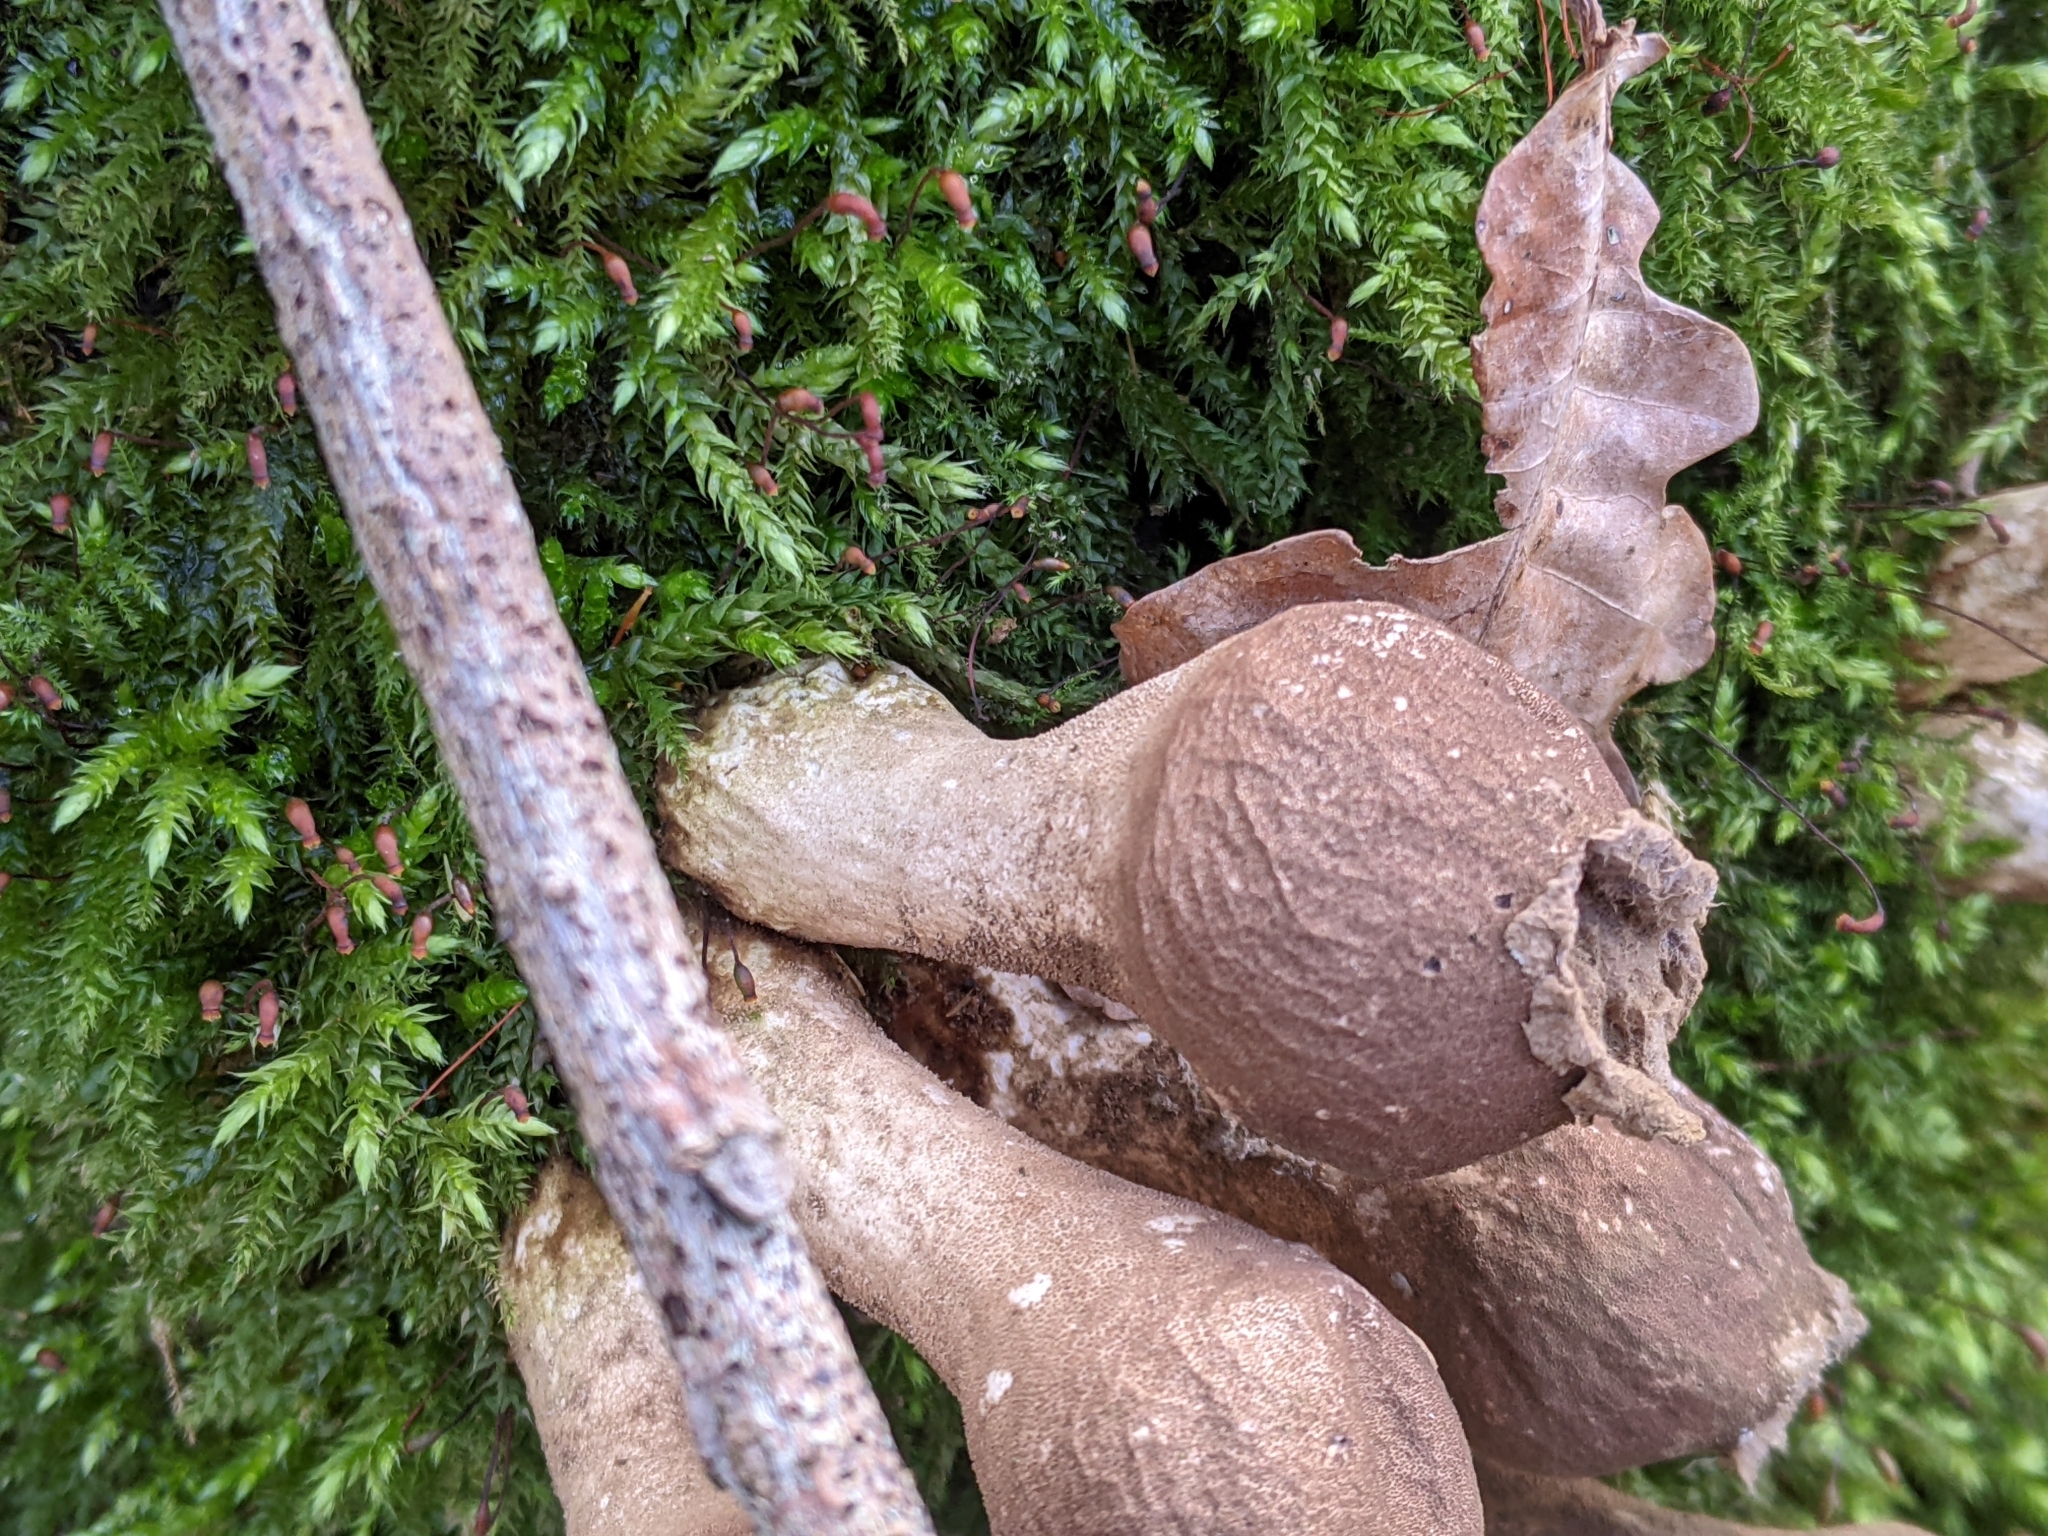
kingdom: Fungi
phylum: Basidiomycota
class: Agaricomycetes
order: Agaricales
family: Lycoperdaceae
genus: Apioperdon
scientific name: Apioperdon pyriforme
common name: Pear-shaped puffball
